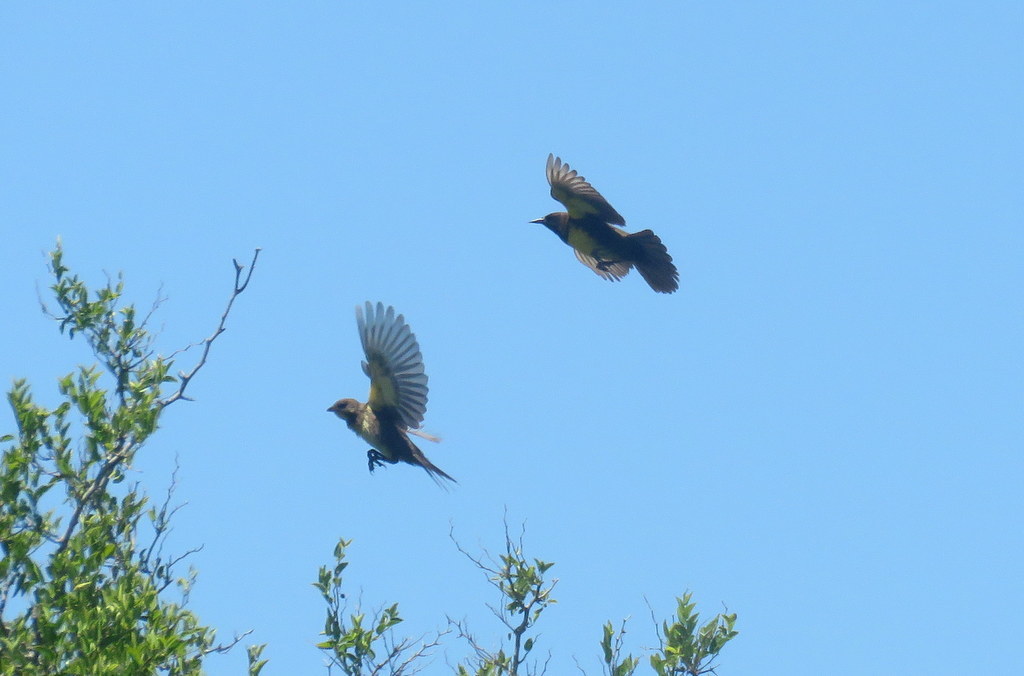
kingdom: Animalia
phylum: Chordata
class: Aves
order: Passeriformes
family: Icteridae
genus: Pseudoleistes
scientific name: Pseudoleistes virescens
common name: Brown-and-yellow marshbird
